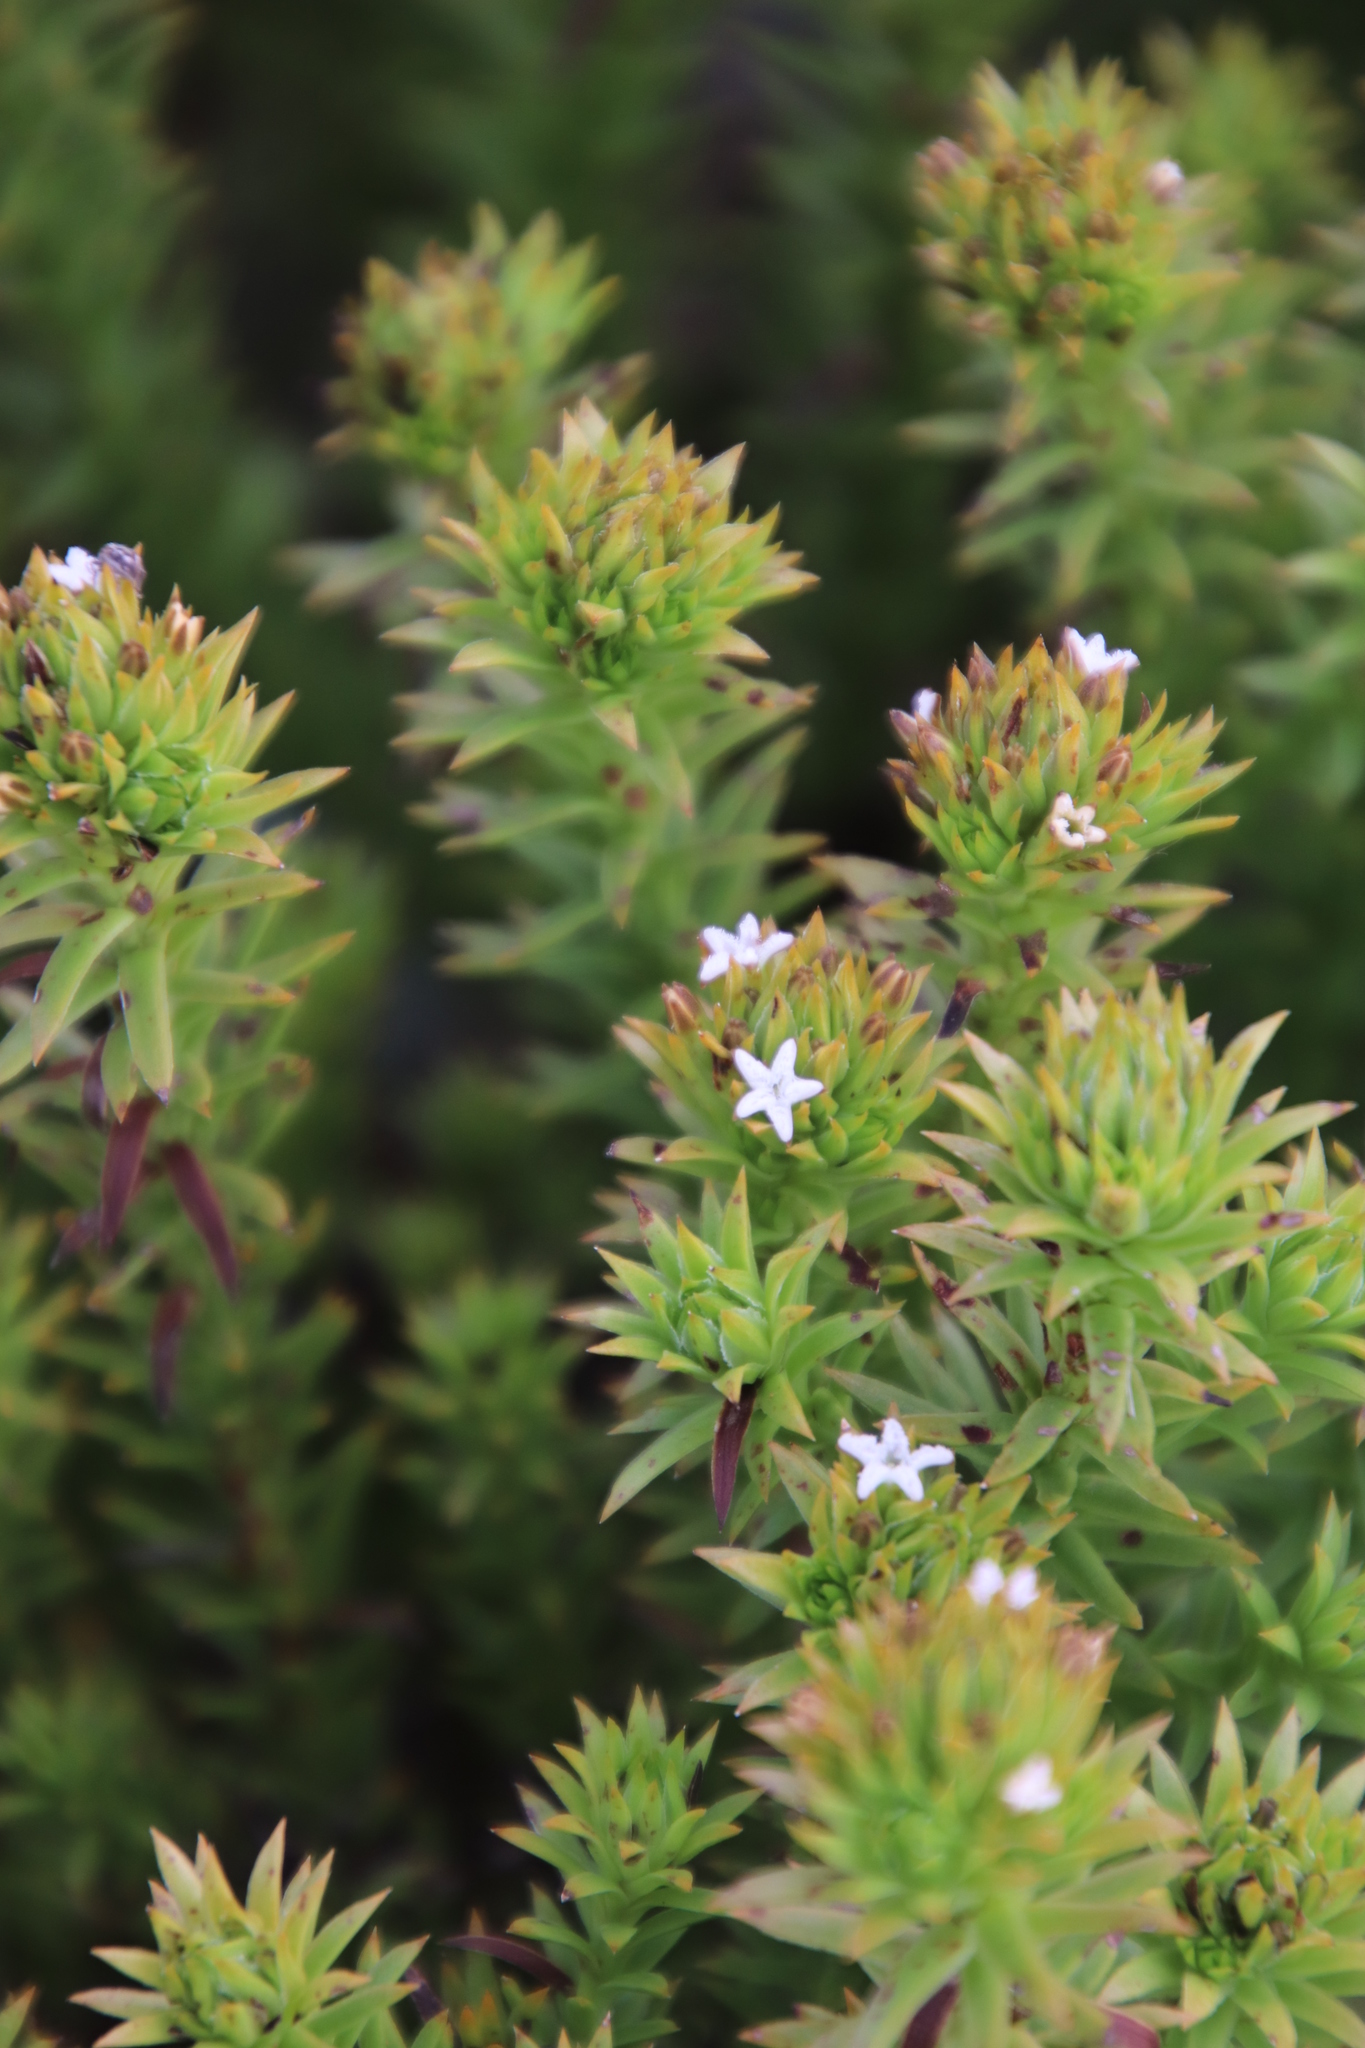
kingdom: Plantae
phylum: Tracheophyta
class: Magnoliopsida
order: Santalales
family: Thesiaceae
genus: Thesium
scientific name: Thesium viridifolium
